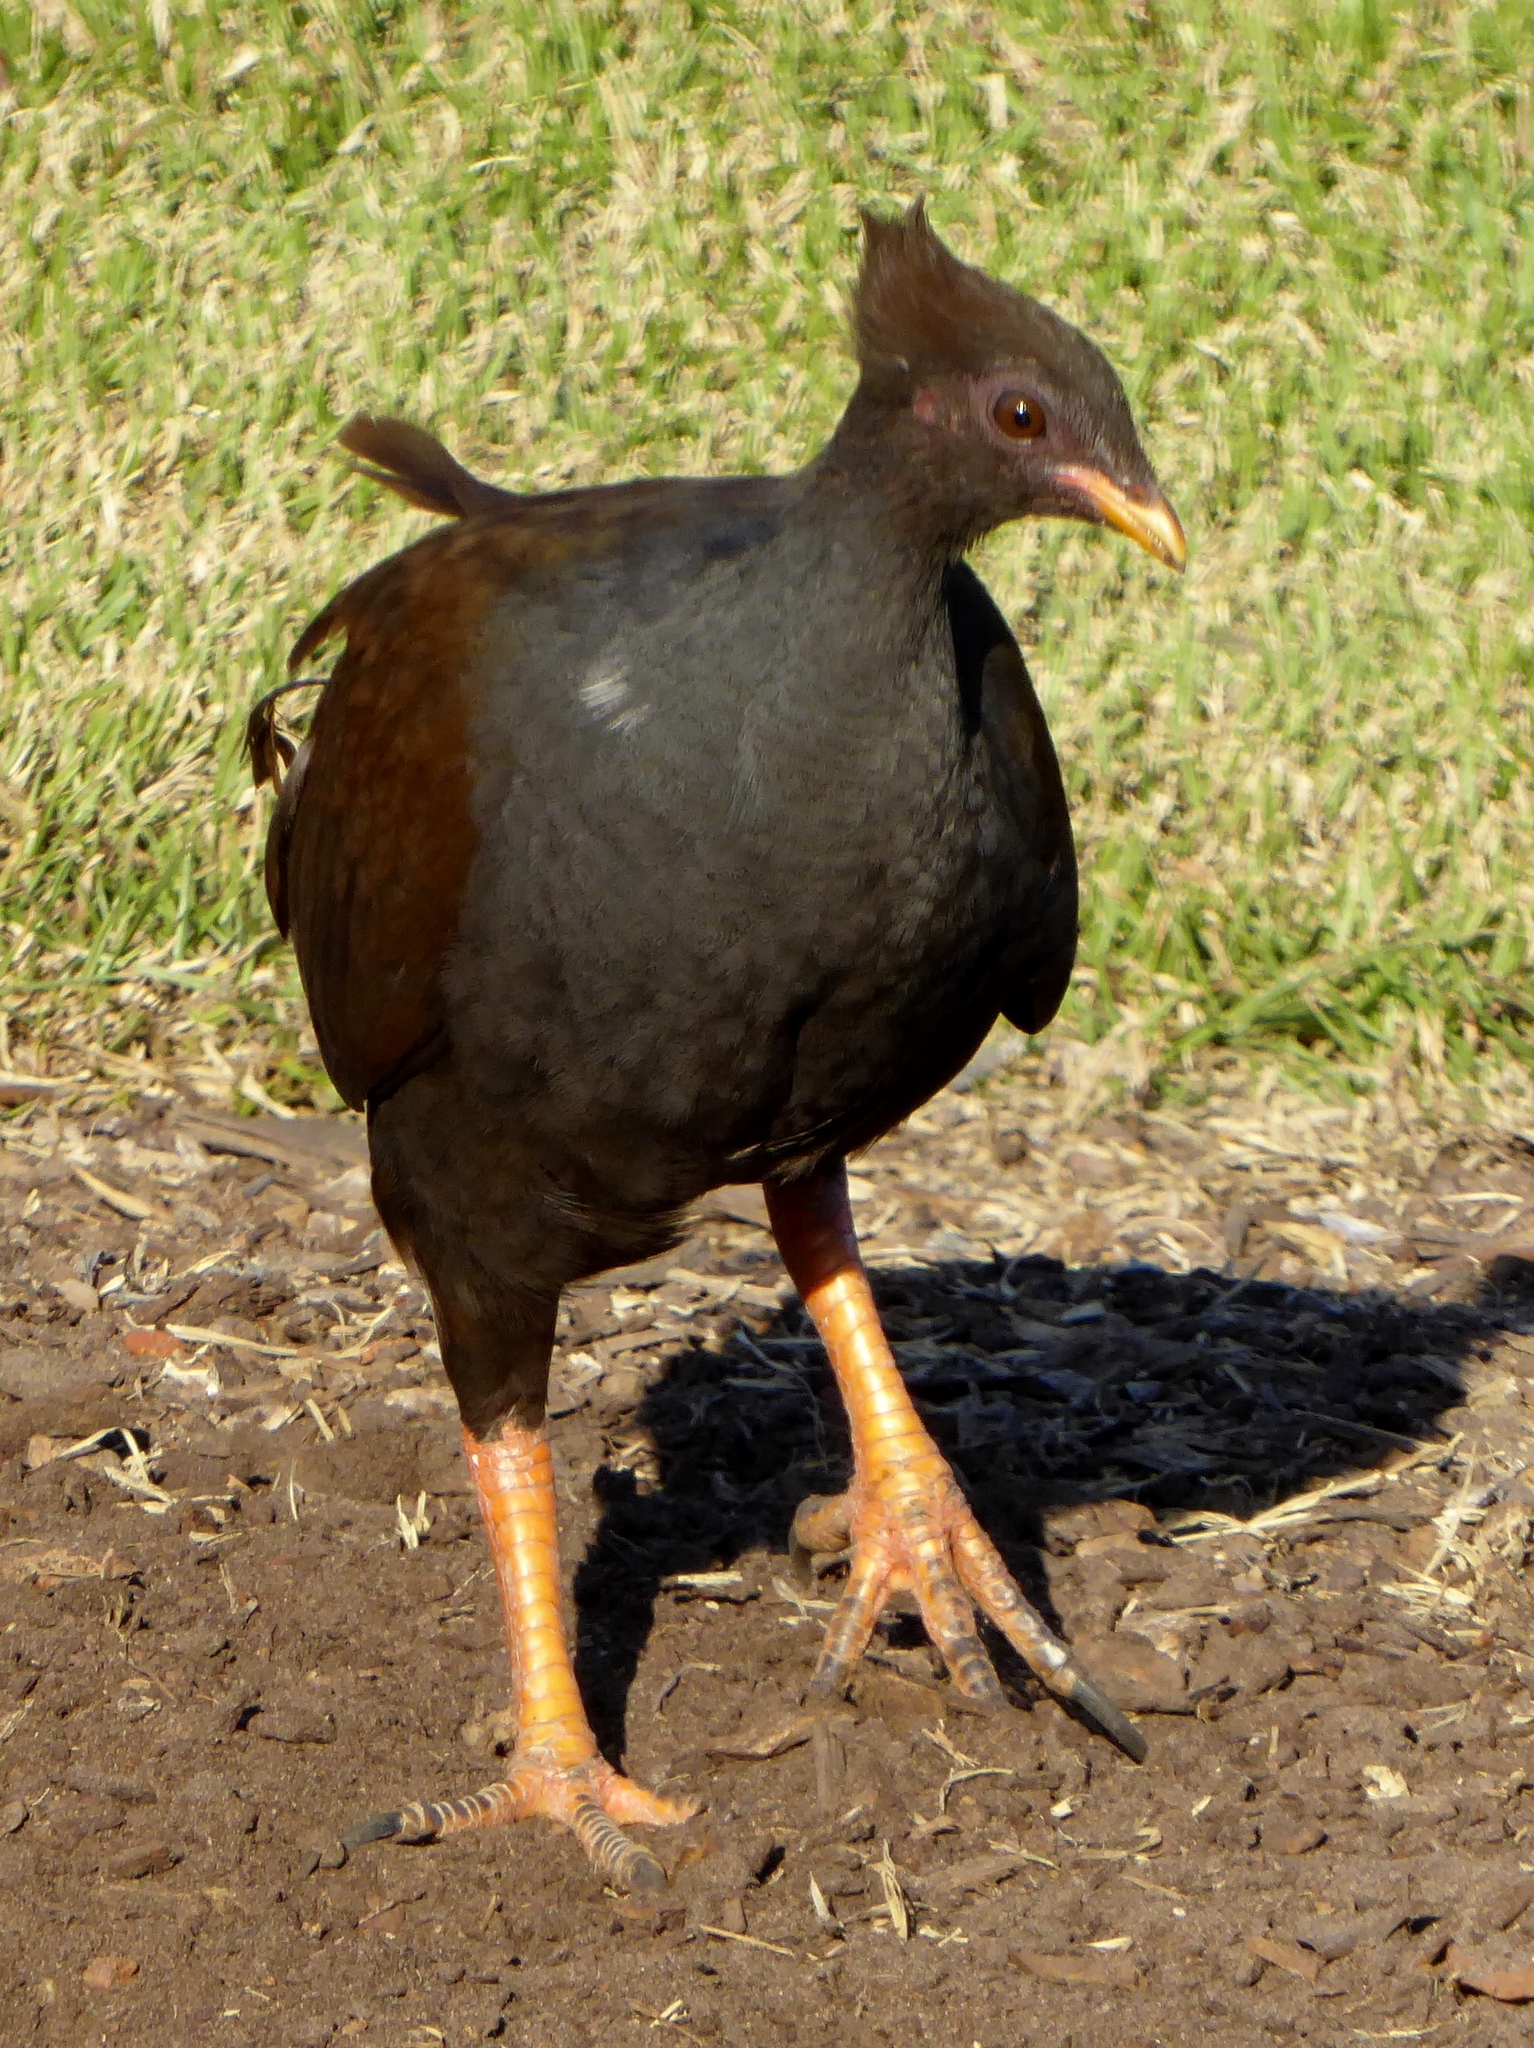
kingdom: Animalia
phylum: Chordata
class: Aves
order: Galliformes
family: Megapodiidae
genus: Megapodius
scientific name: Megapodius reinwardt
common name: Orange-footed scrubfowl
